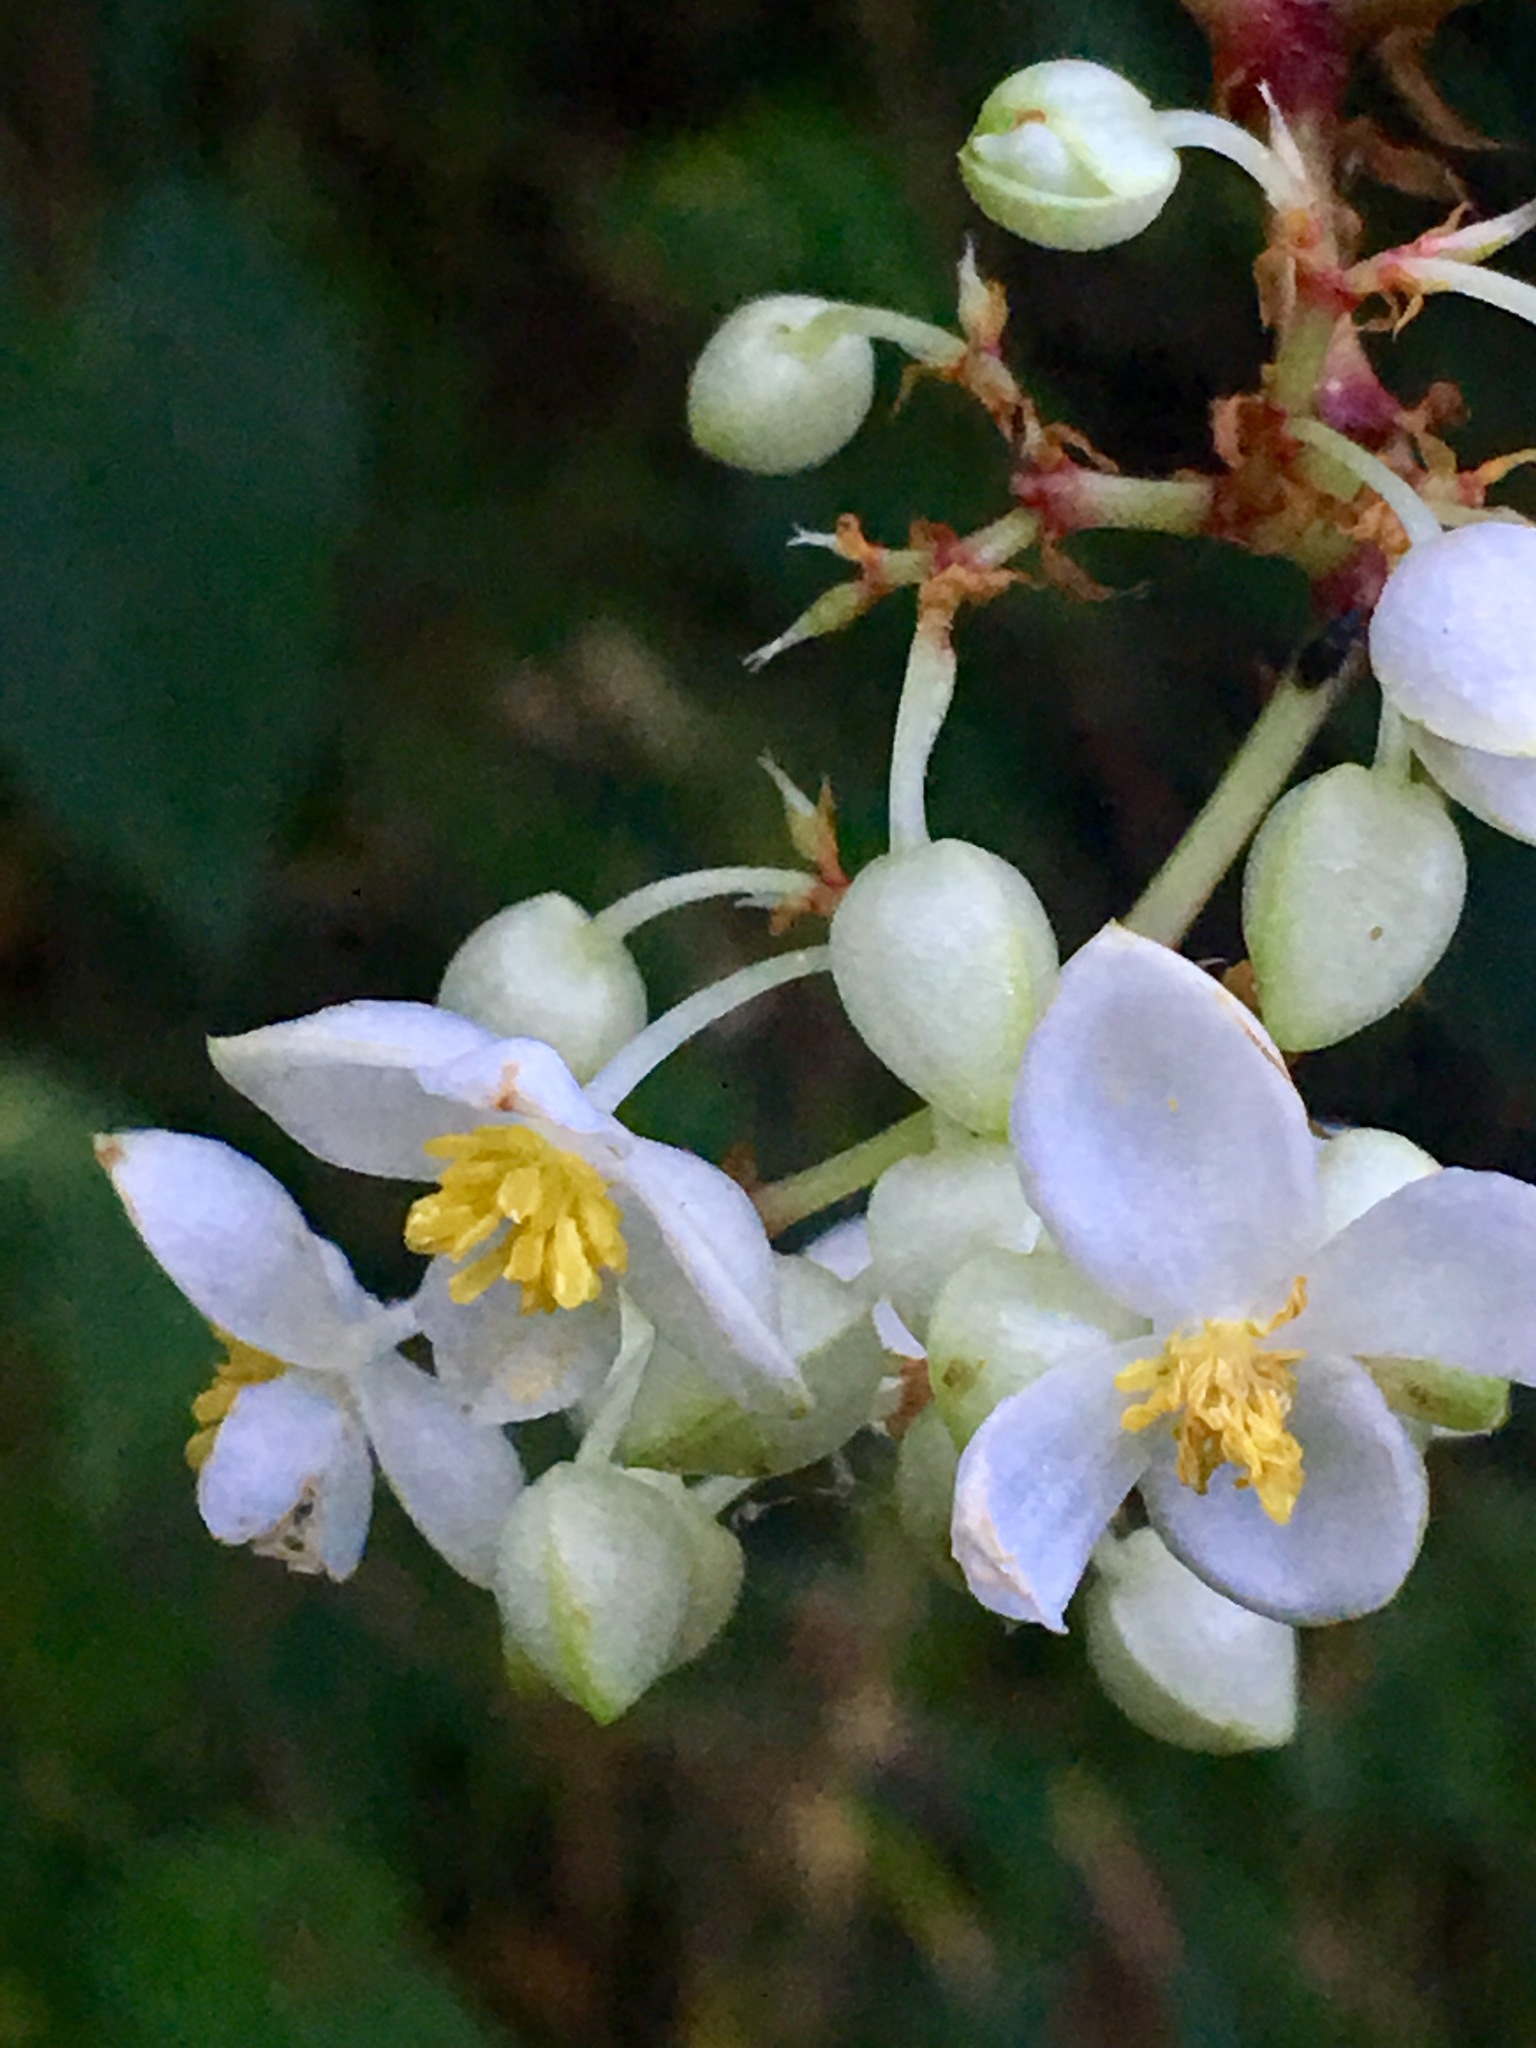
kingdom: Plantae
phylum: Tracheophyta
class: Magnoliopsida
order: Cucurbitales
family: Begoniaceae
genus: Begonia
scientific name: Begonia meridensis
